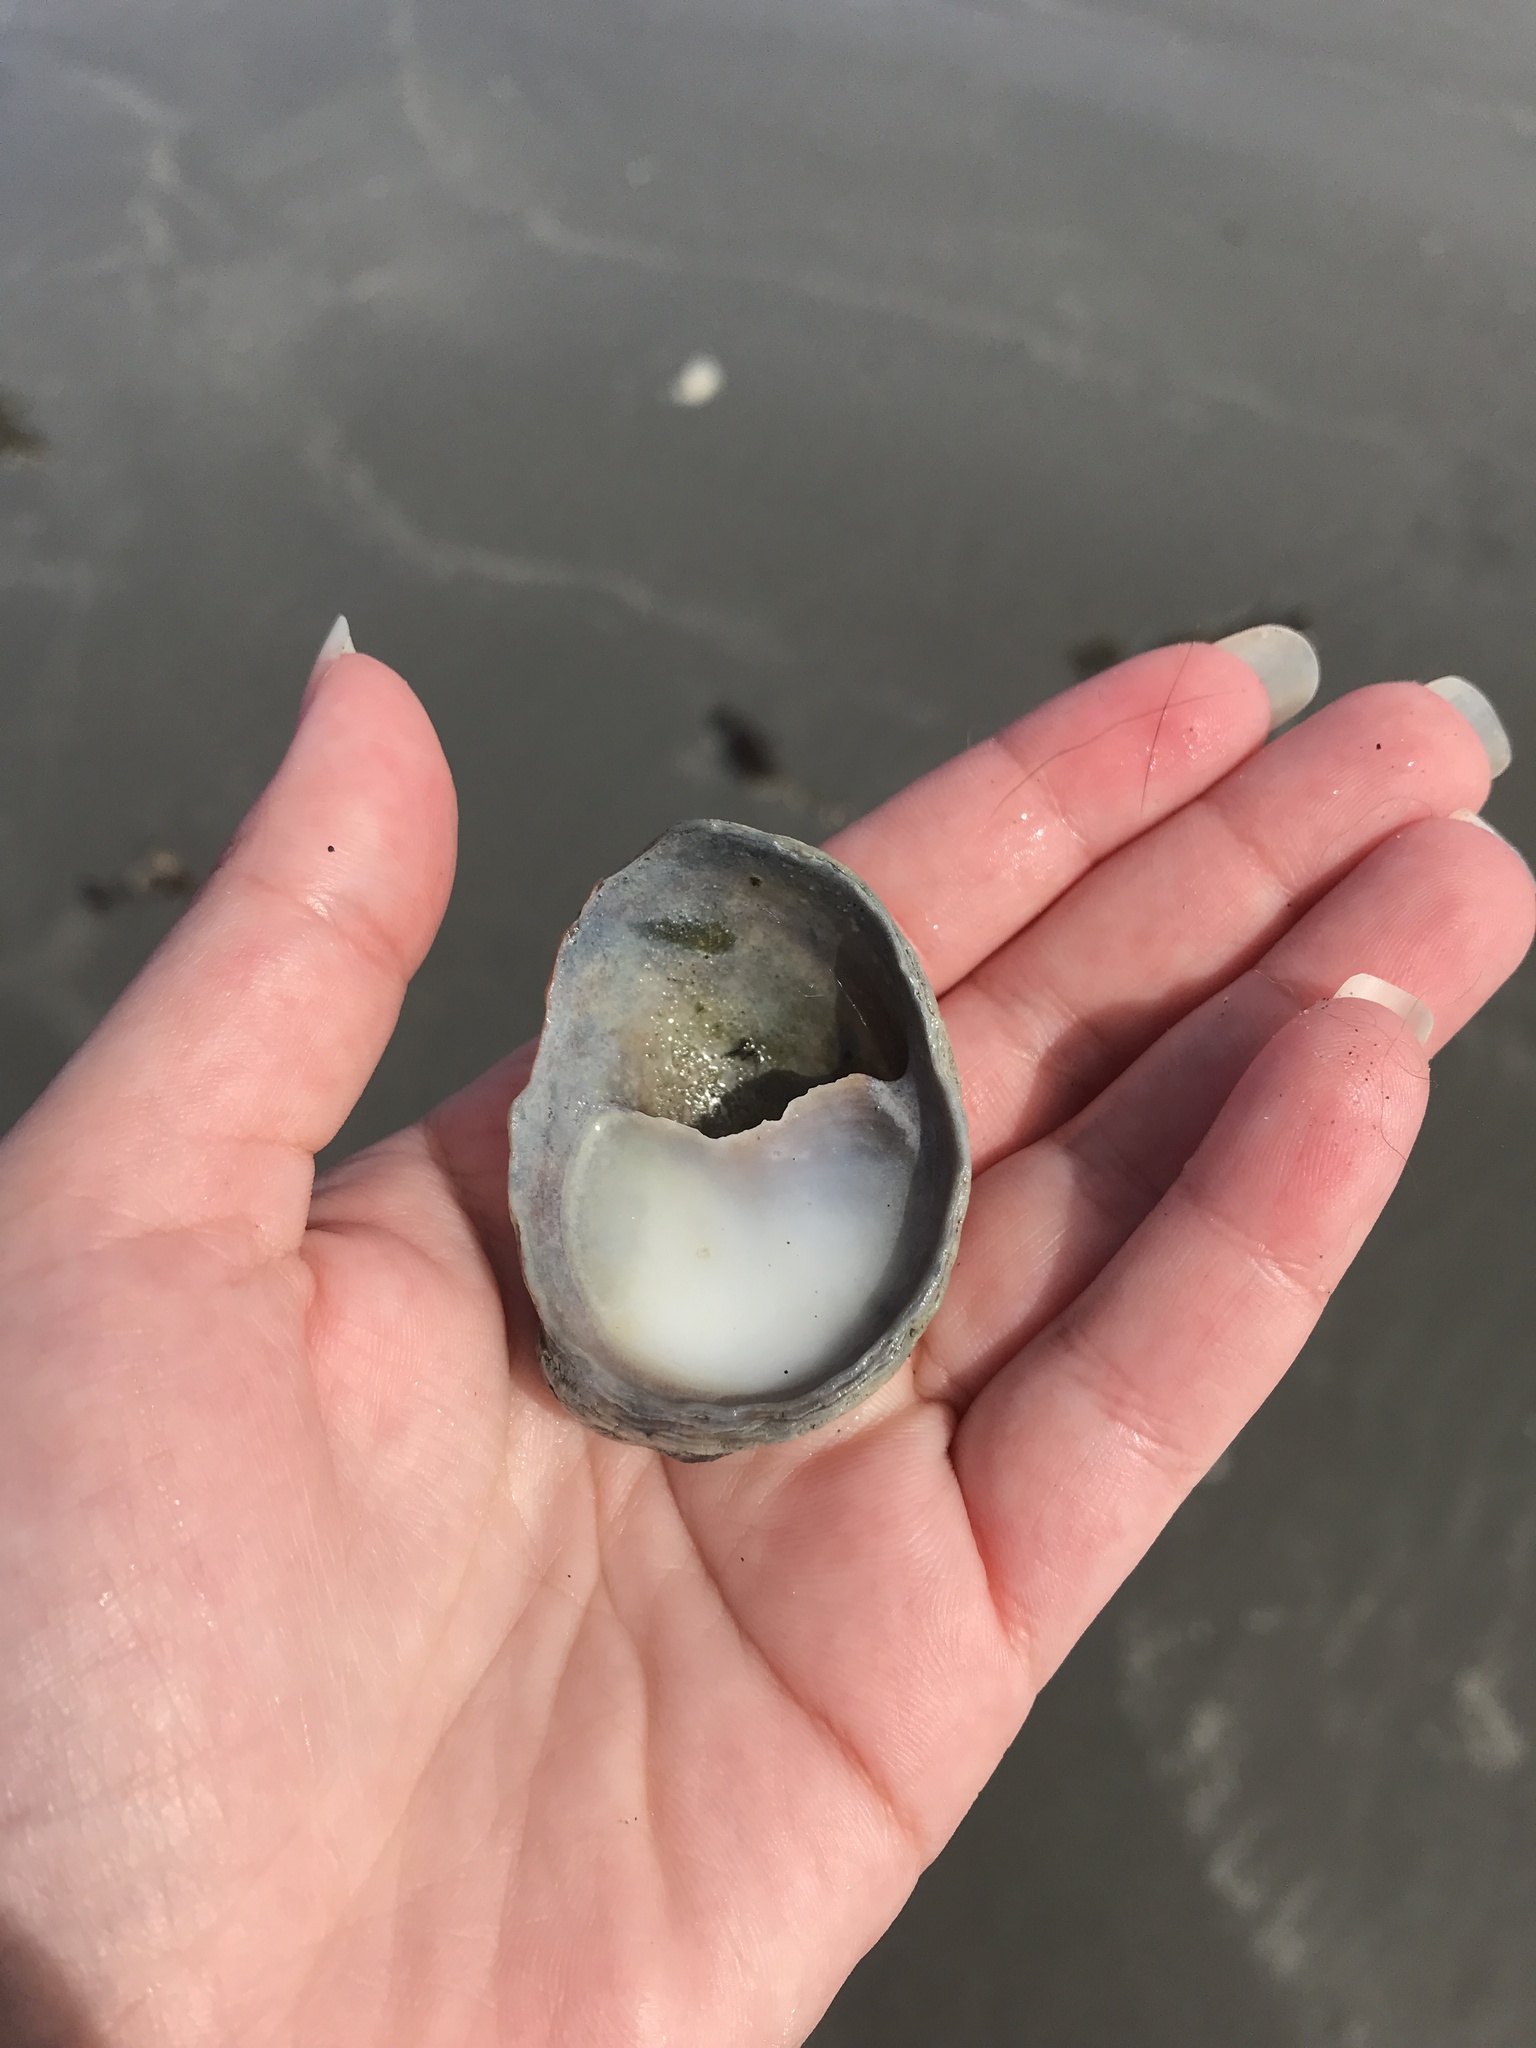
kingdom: Animalia
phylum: Mollusca
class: Gastropoda
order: Littorinimorpha
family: Calyptraeidae
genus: Crepidula
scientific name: Crepidula fornicata
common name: Slipper limpet
